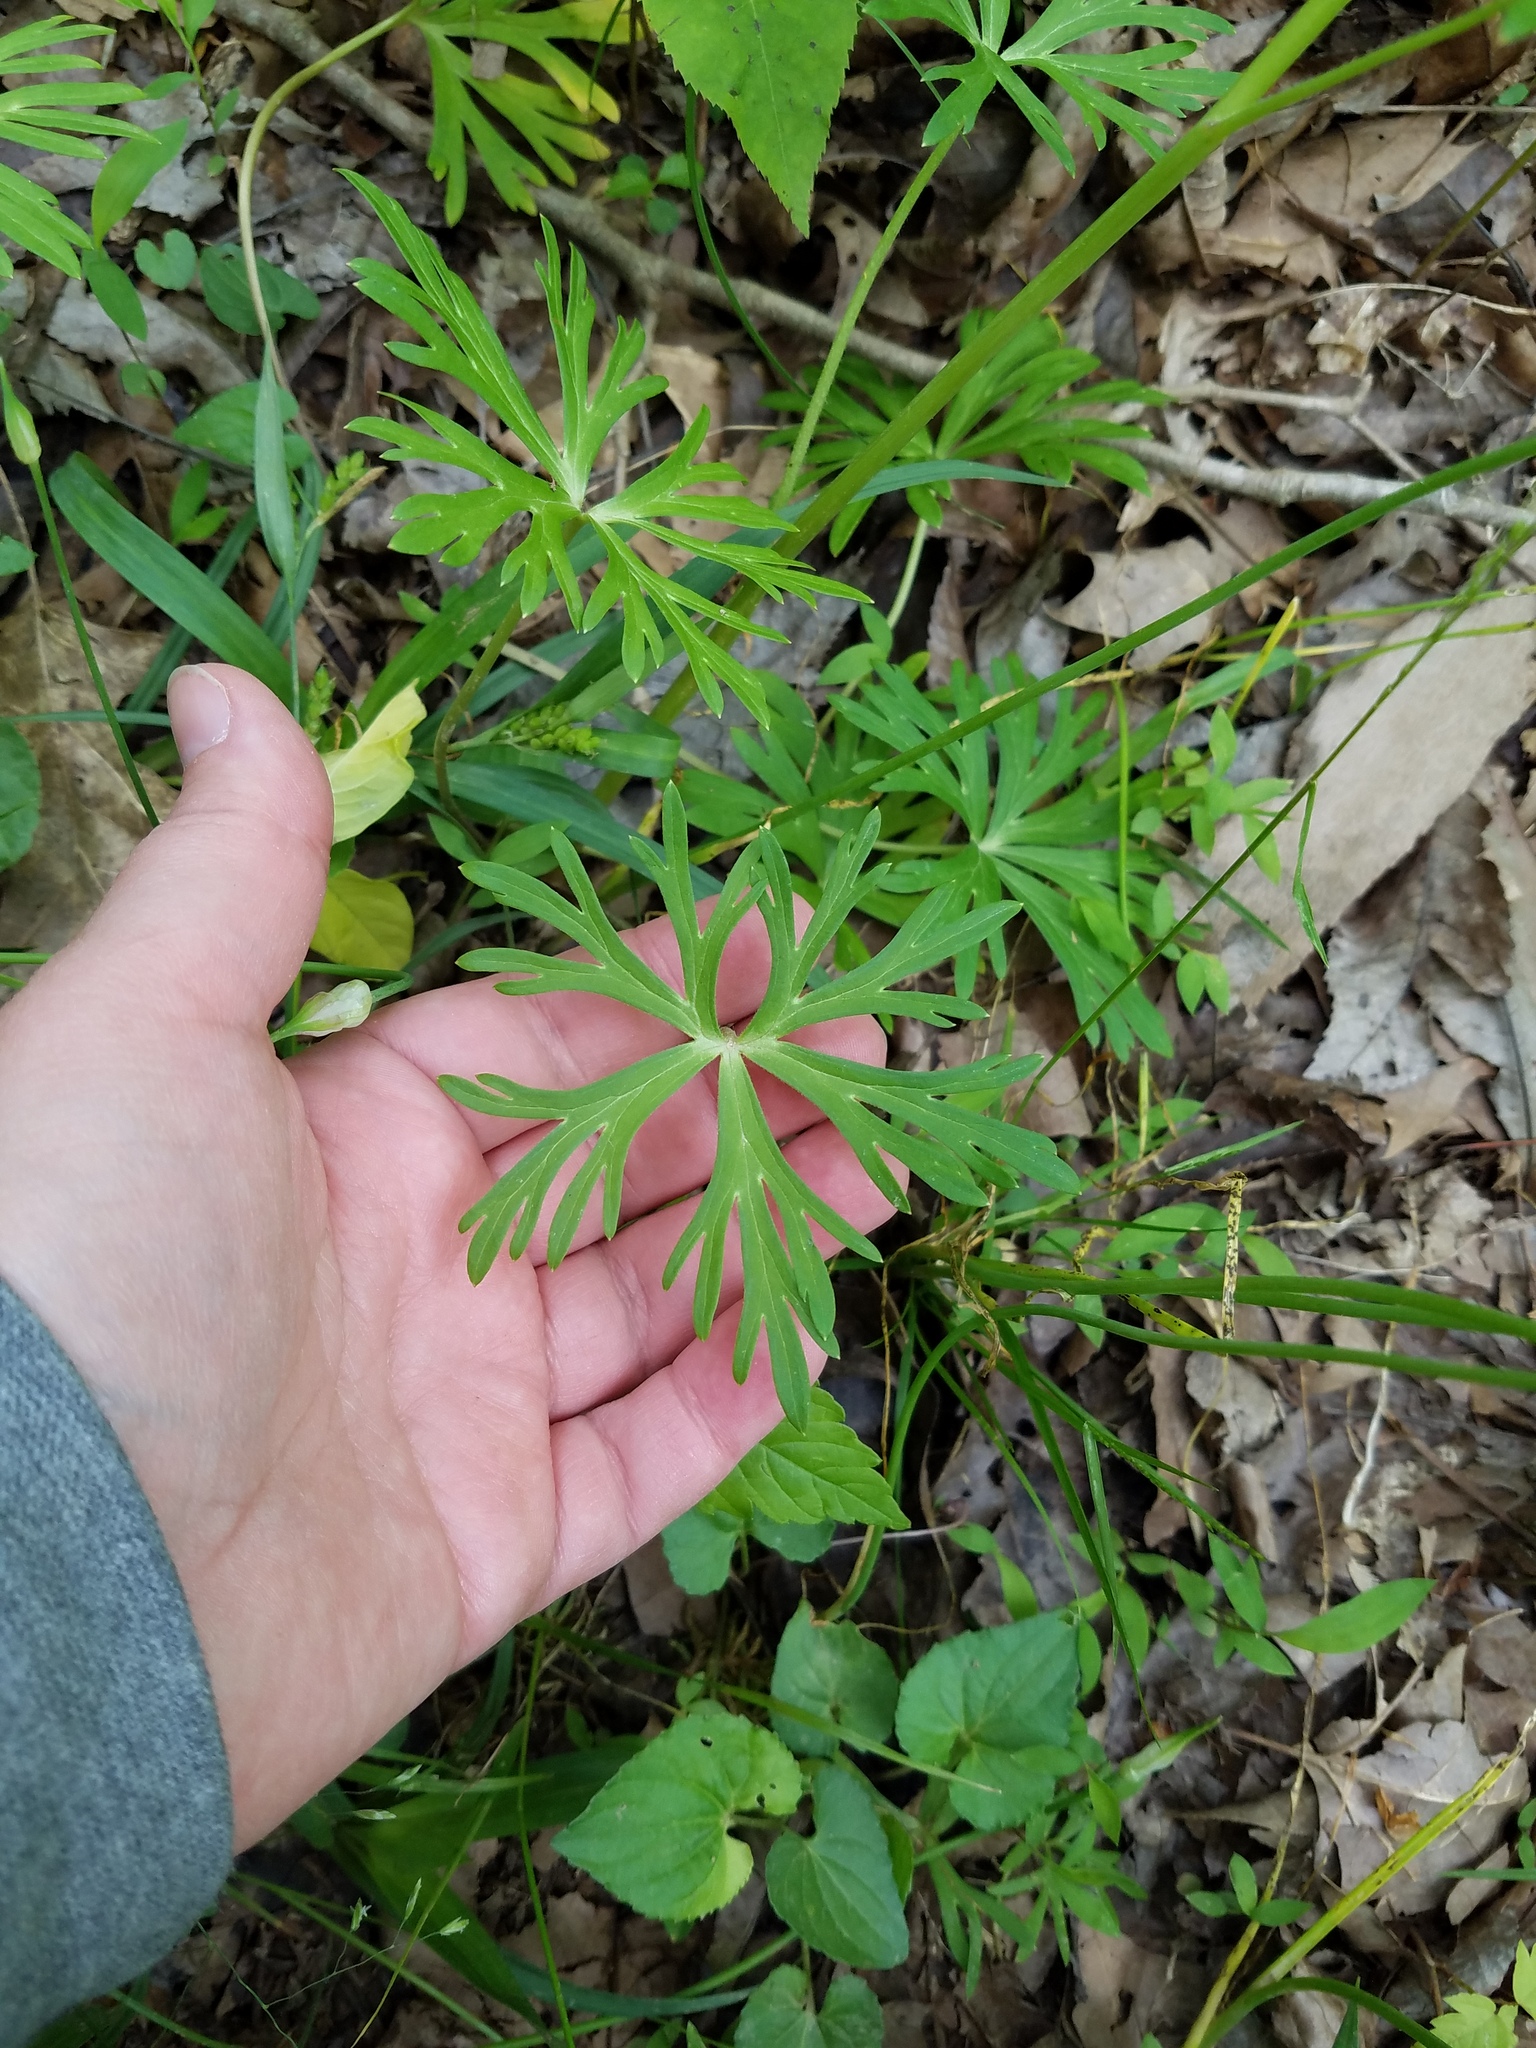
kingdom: Plantae
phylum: Tracheophyta
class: Magnoliopsida
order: Ranunculales
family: Ranunculaceae
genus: Delphinium
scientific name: Delphinium tricorne
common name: Dwarf larkspur
